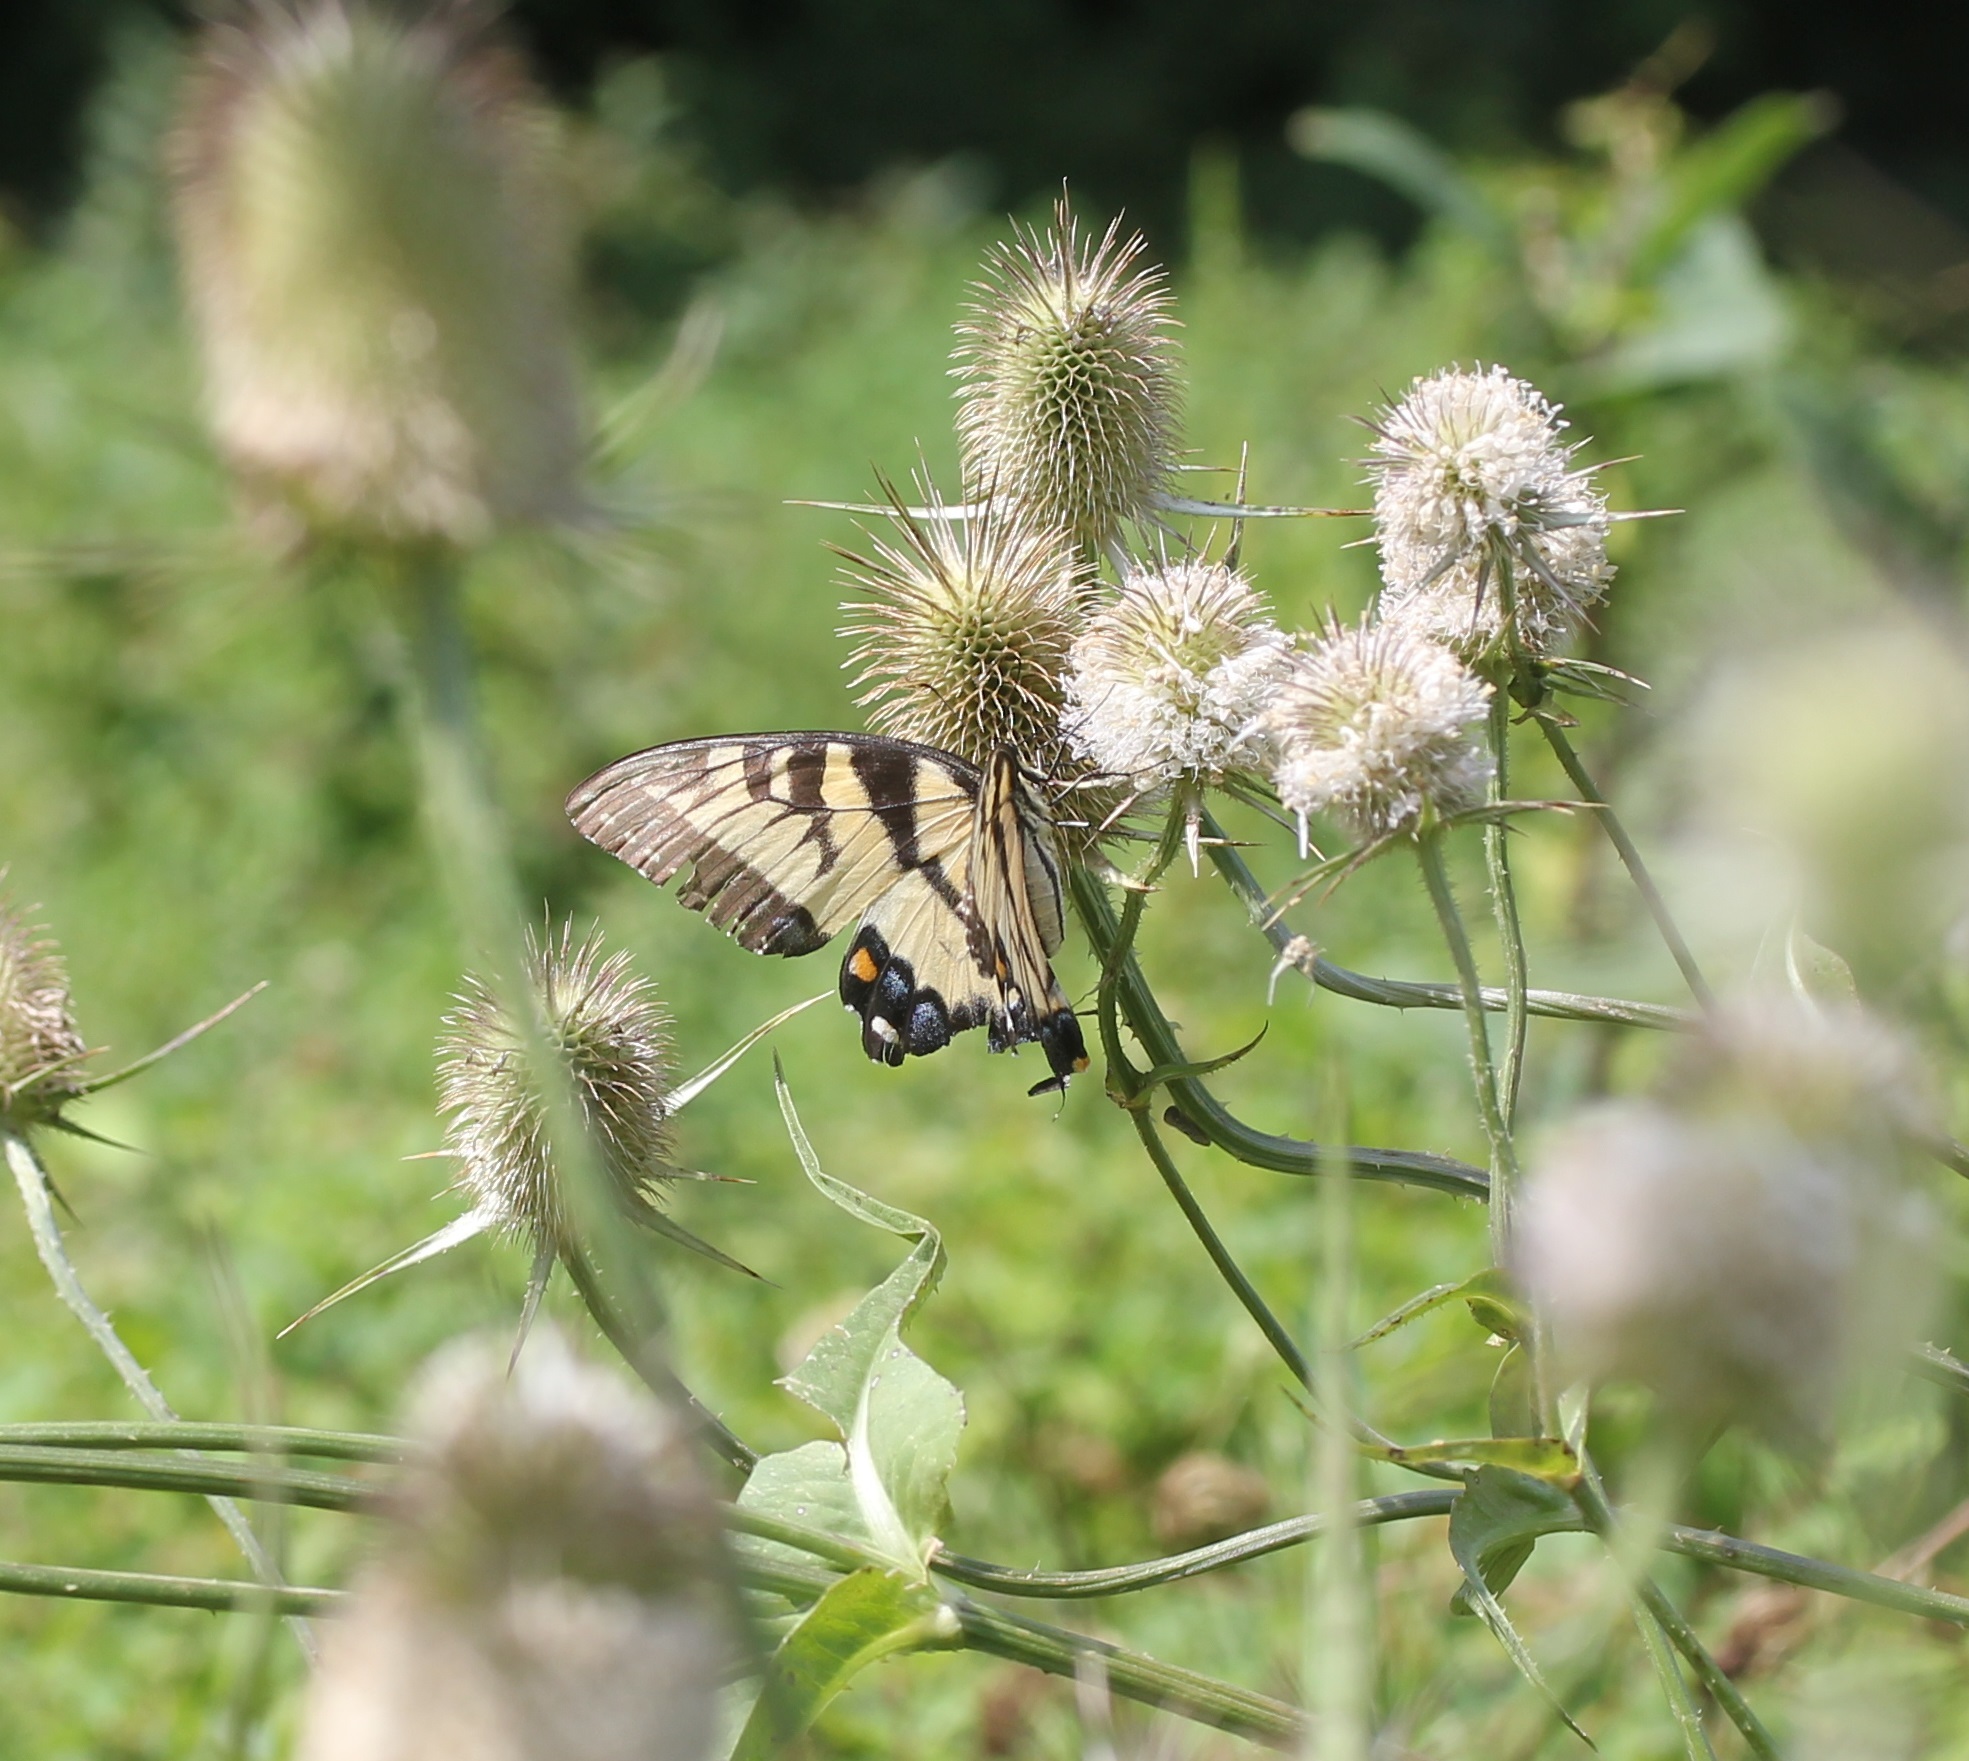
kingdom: Animalia
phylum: Arthropoda
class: Insecta
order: Lepidoptera
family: Papilionidae
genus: Papilio
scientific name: Papilio glaucus
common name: Tiger swallowtail
